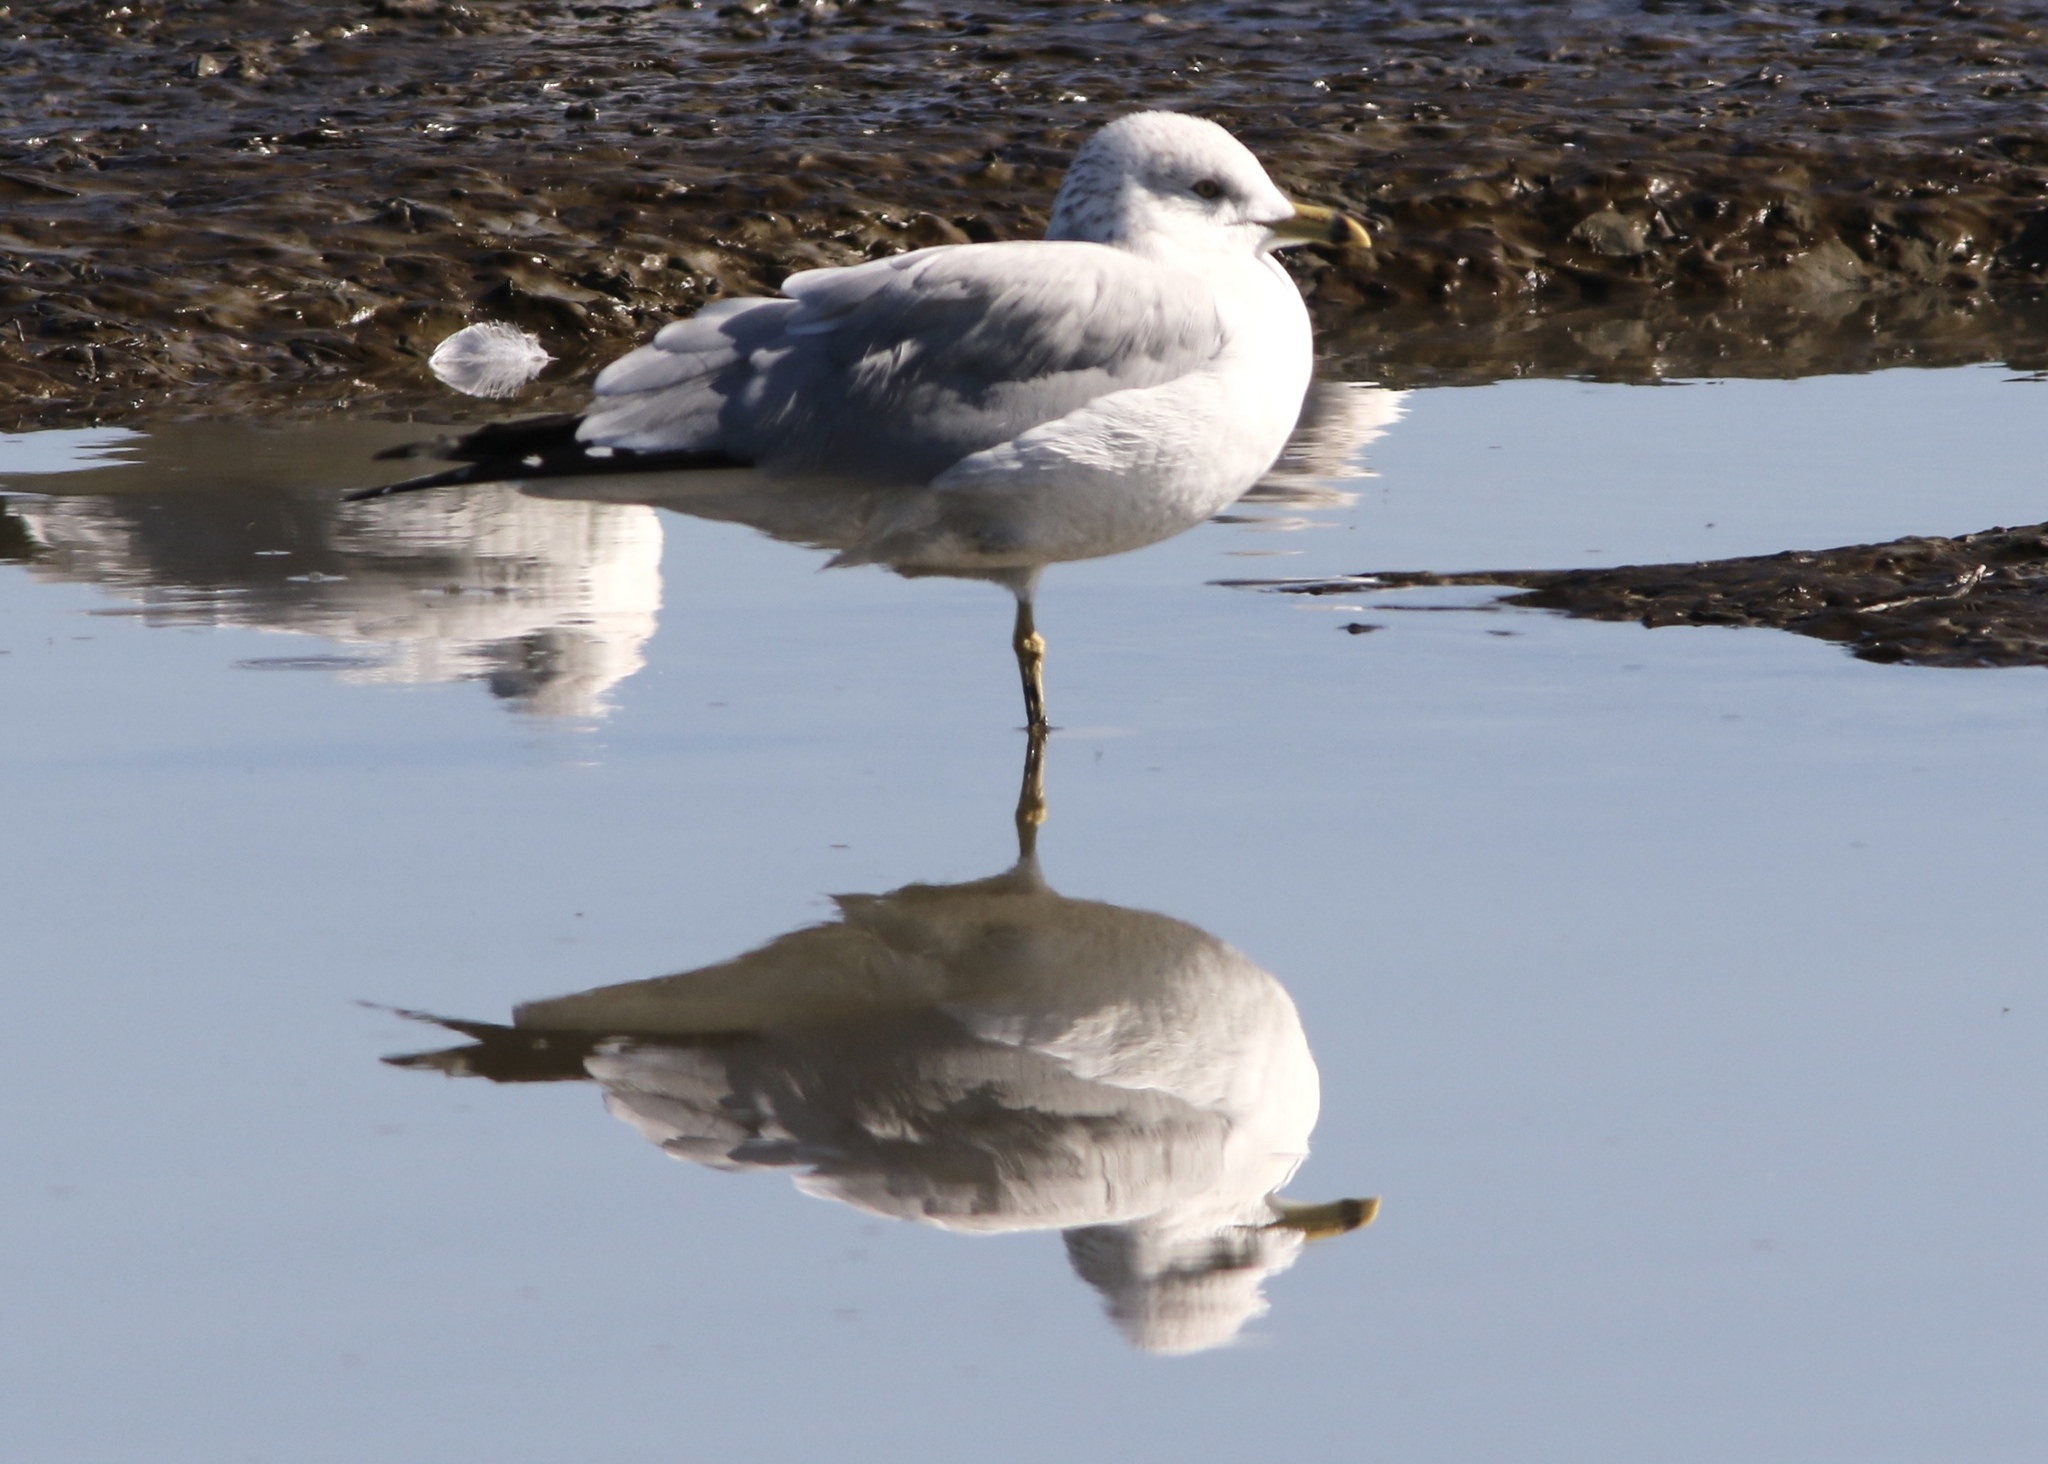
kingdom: Animalia
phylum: Chordata
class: Aves
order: Charadriiformes
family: Laridae
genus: Larus
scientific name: Larus delawarensis
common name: Ring-billed gull
